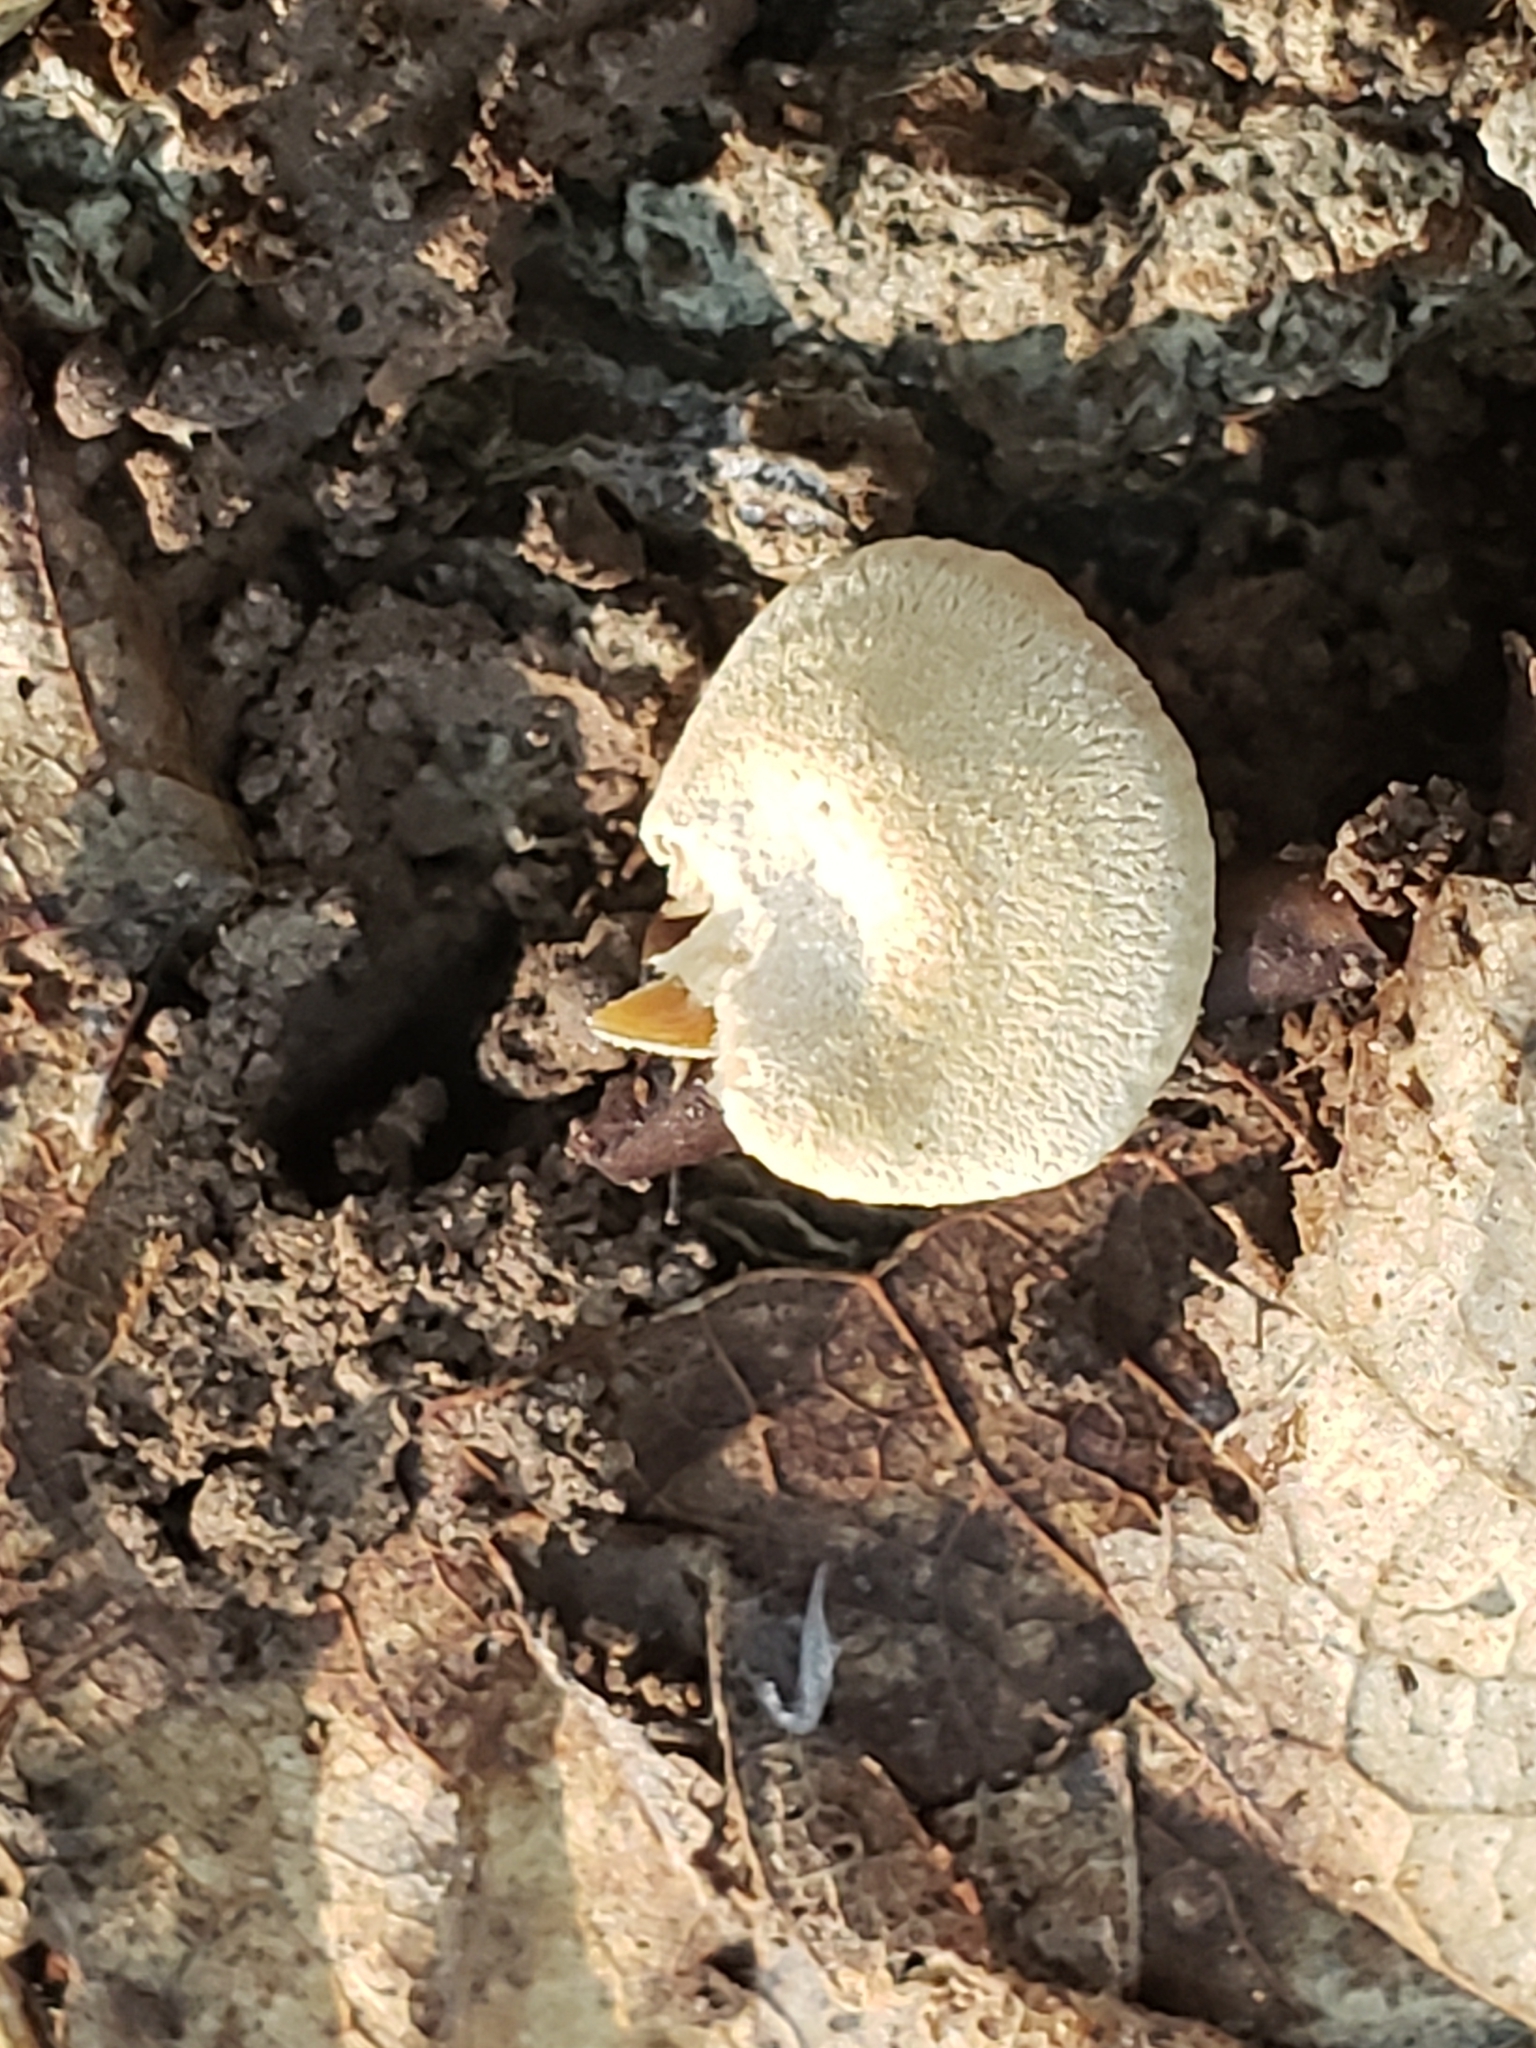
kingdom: Fungi
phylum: Basidiomycota
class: Agaricomycetes
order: Agaricales
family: Mycenaceae
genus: Panellus
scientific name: Panellus stipticus
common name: Bitter oysterling
